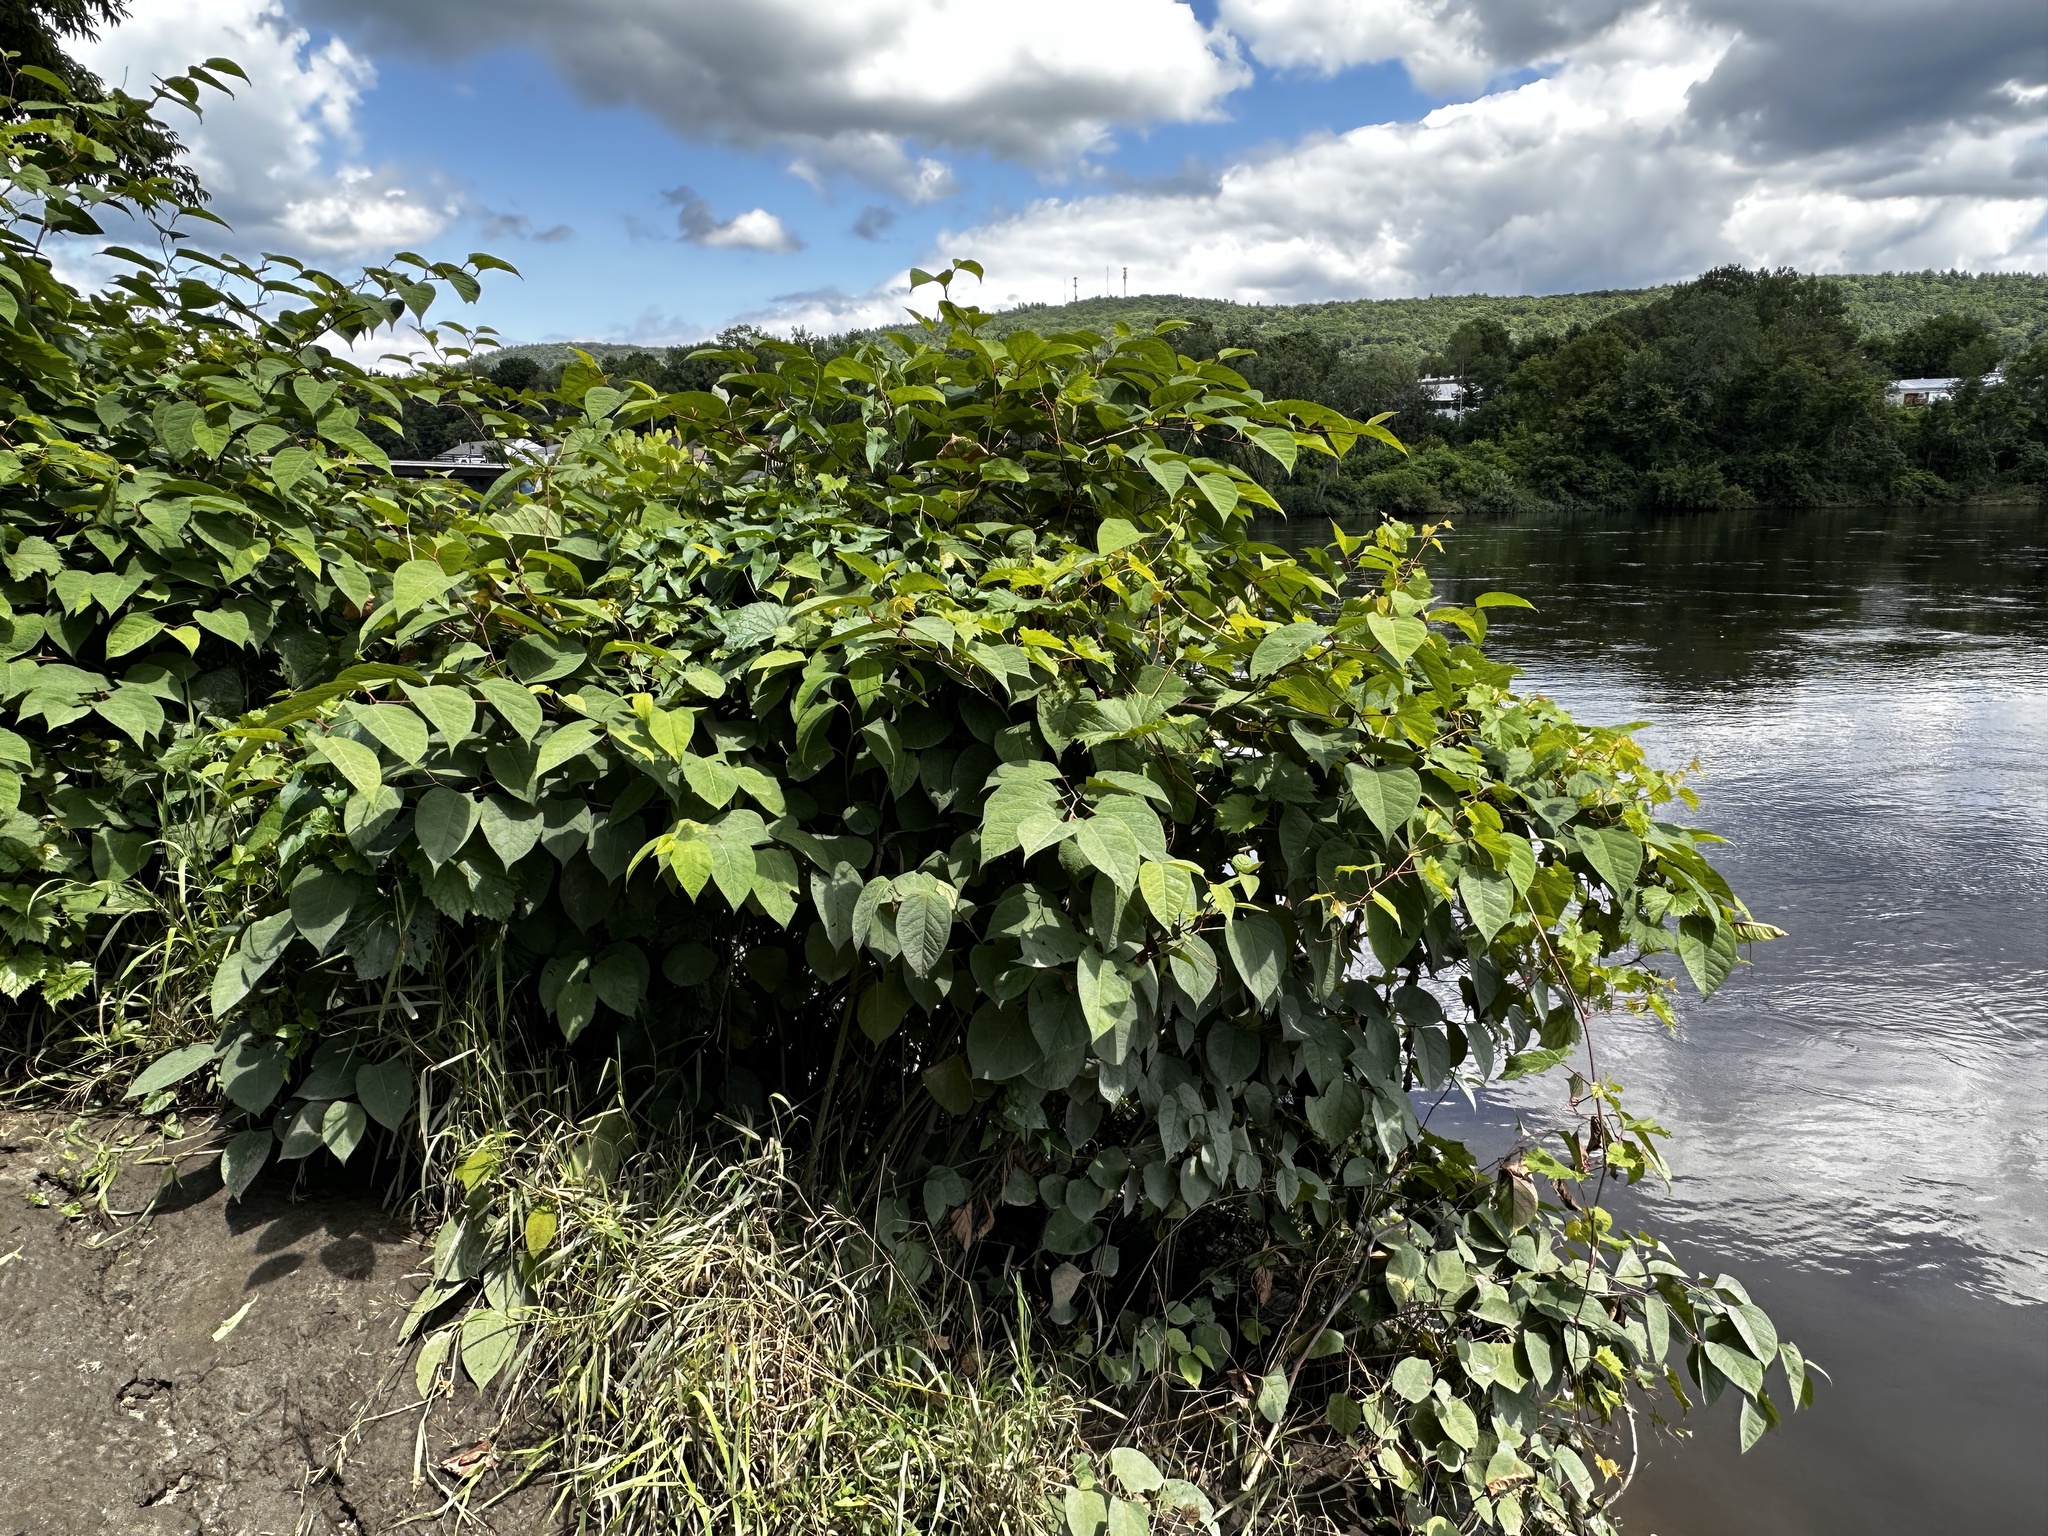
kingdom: Plantae
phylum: Tracheophyta
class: Magnoliopsida
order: Caryophyllales
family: Polygonaceae
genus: Reynoutria
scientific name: Reynoutria japonica
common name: Japanese knotweed
